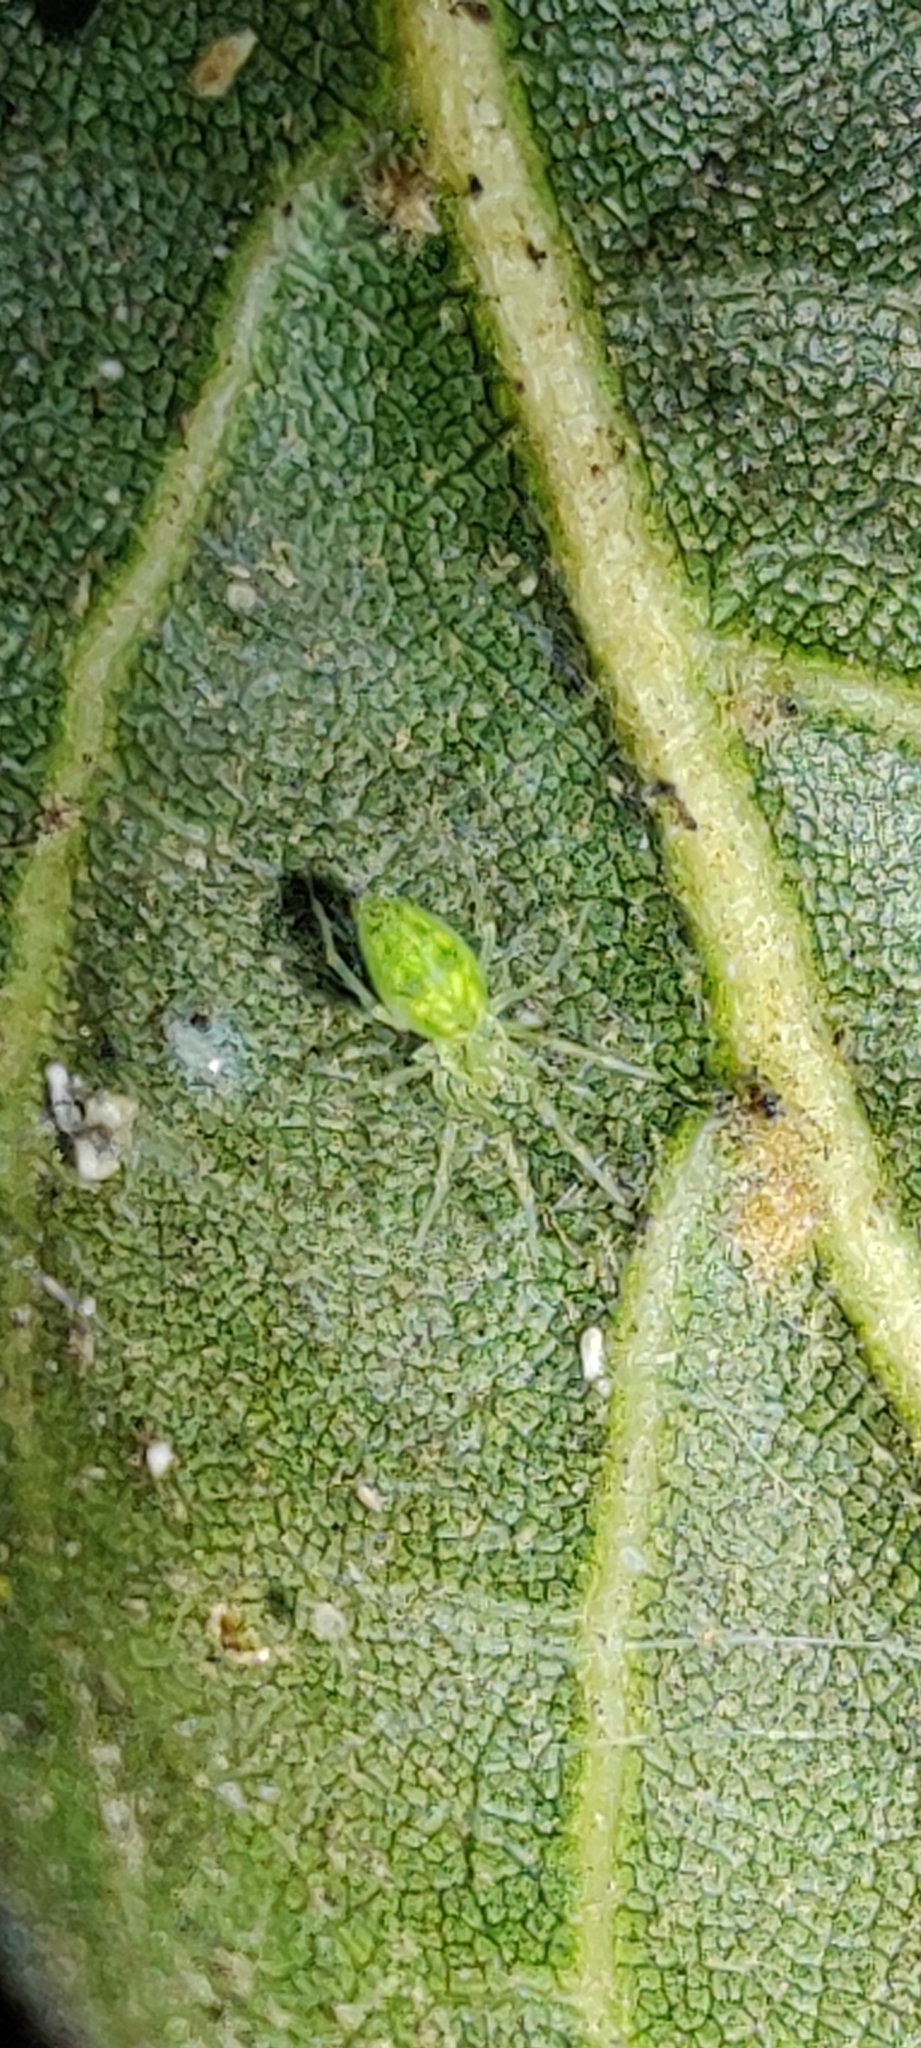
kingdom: Animalia
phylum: Arthropoda
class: Arachnida
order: Araneae
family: Dictynidae
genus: Nigma
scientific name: Nigma linsdalei
